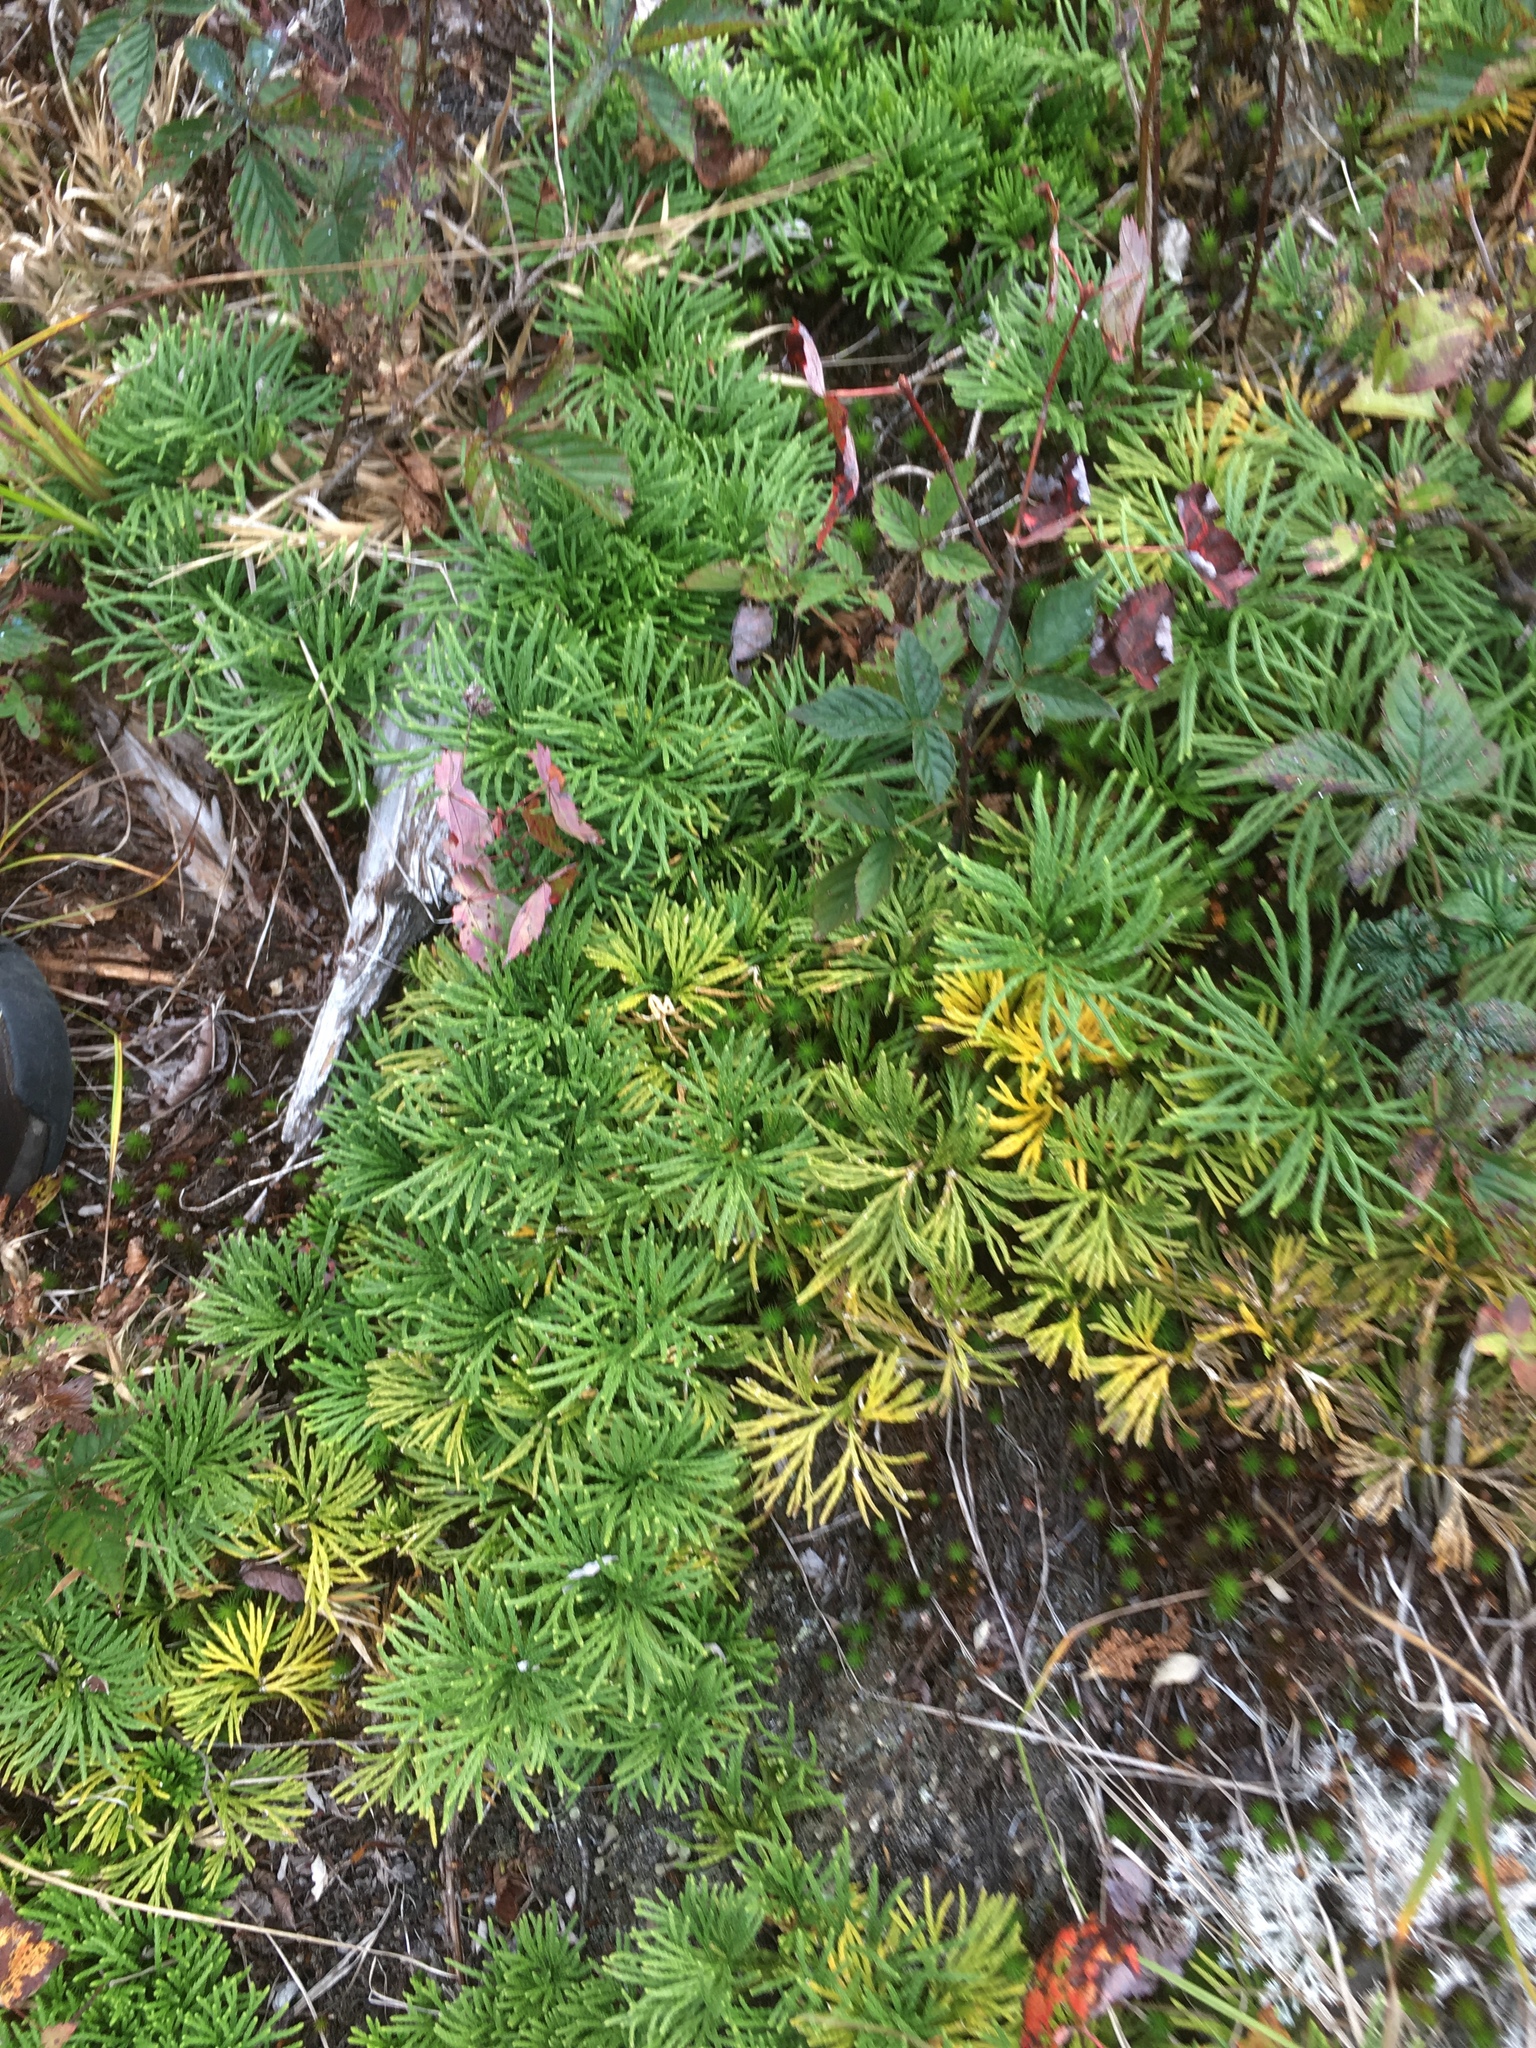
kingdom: Plantae
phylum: Tracheophyta
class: Lycopodiopsida
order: Lycopodiales
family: Lycopodiaceae
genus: Diphasiastrum
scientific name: Diphasiastrum digitatum
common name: Southern running-pine
